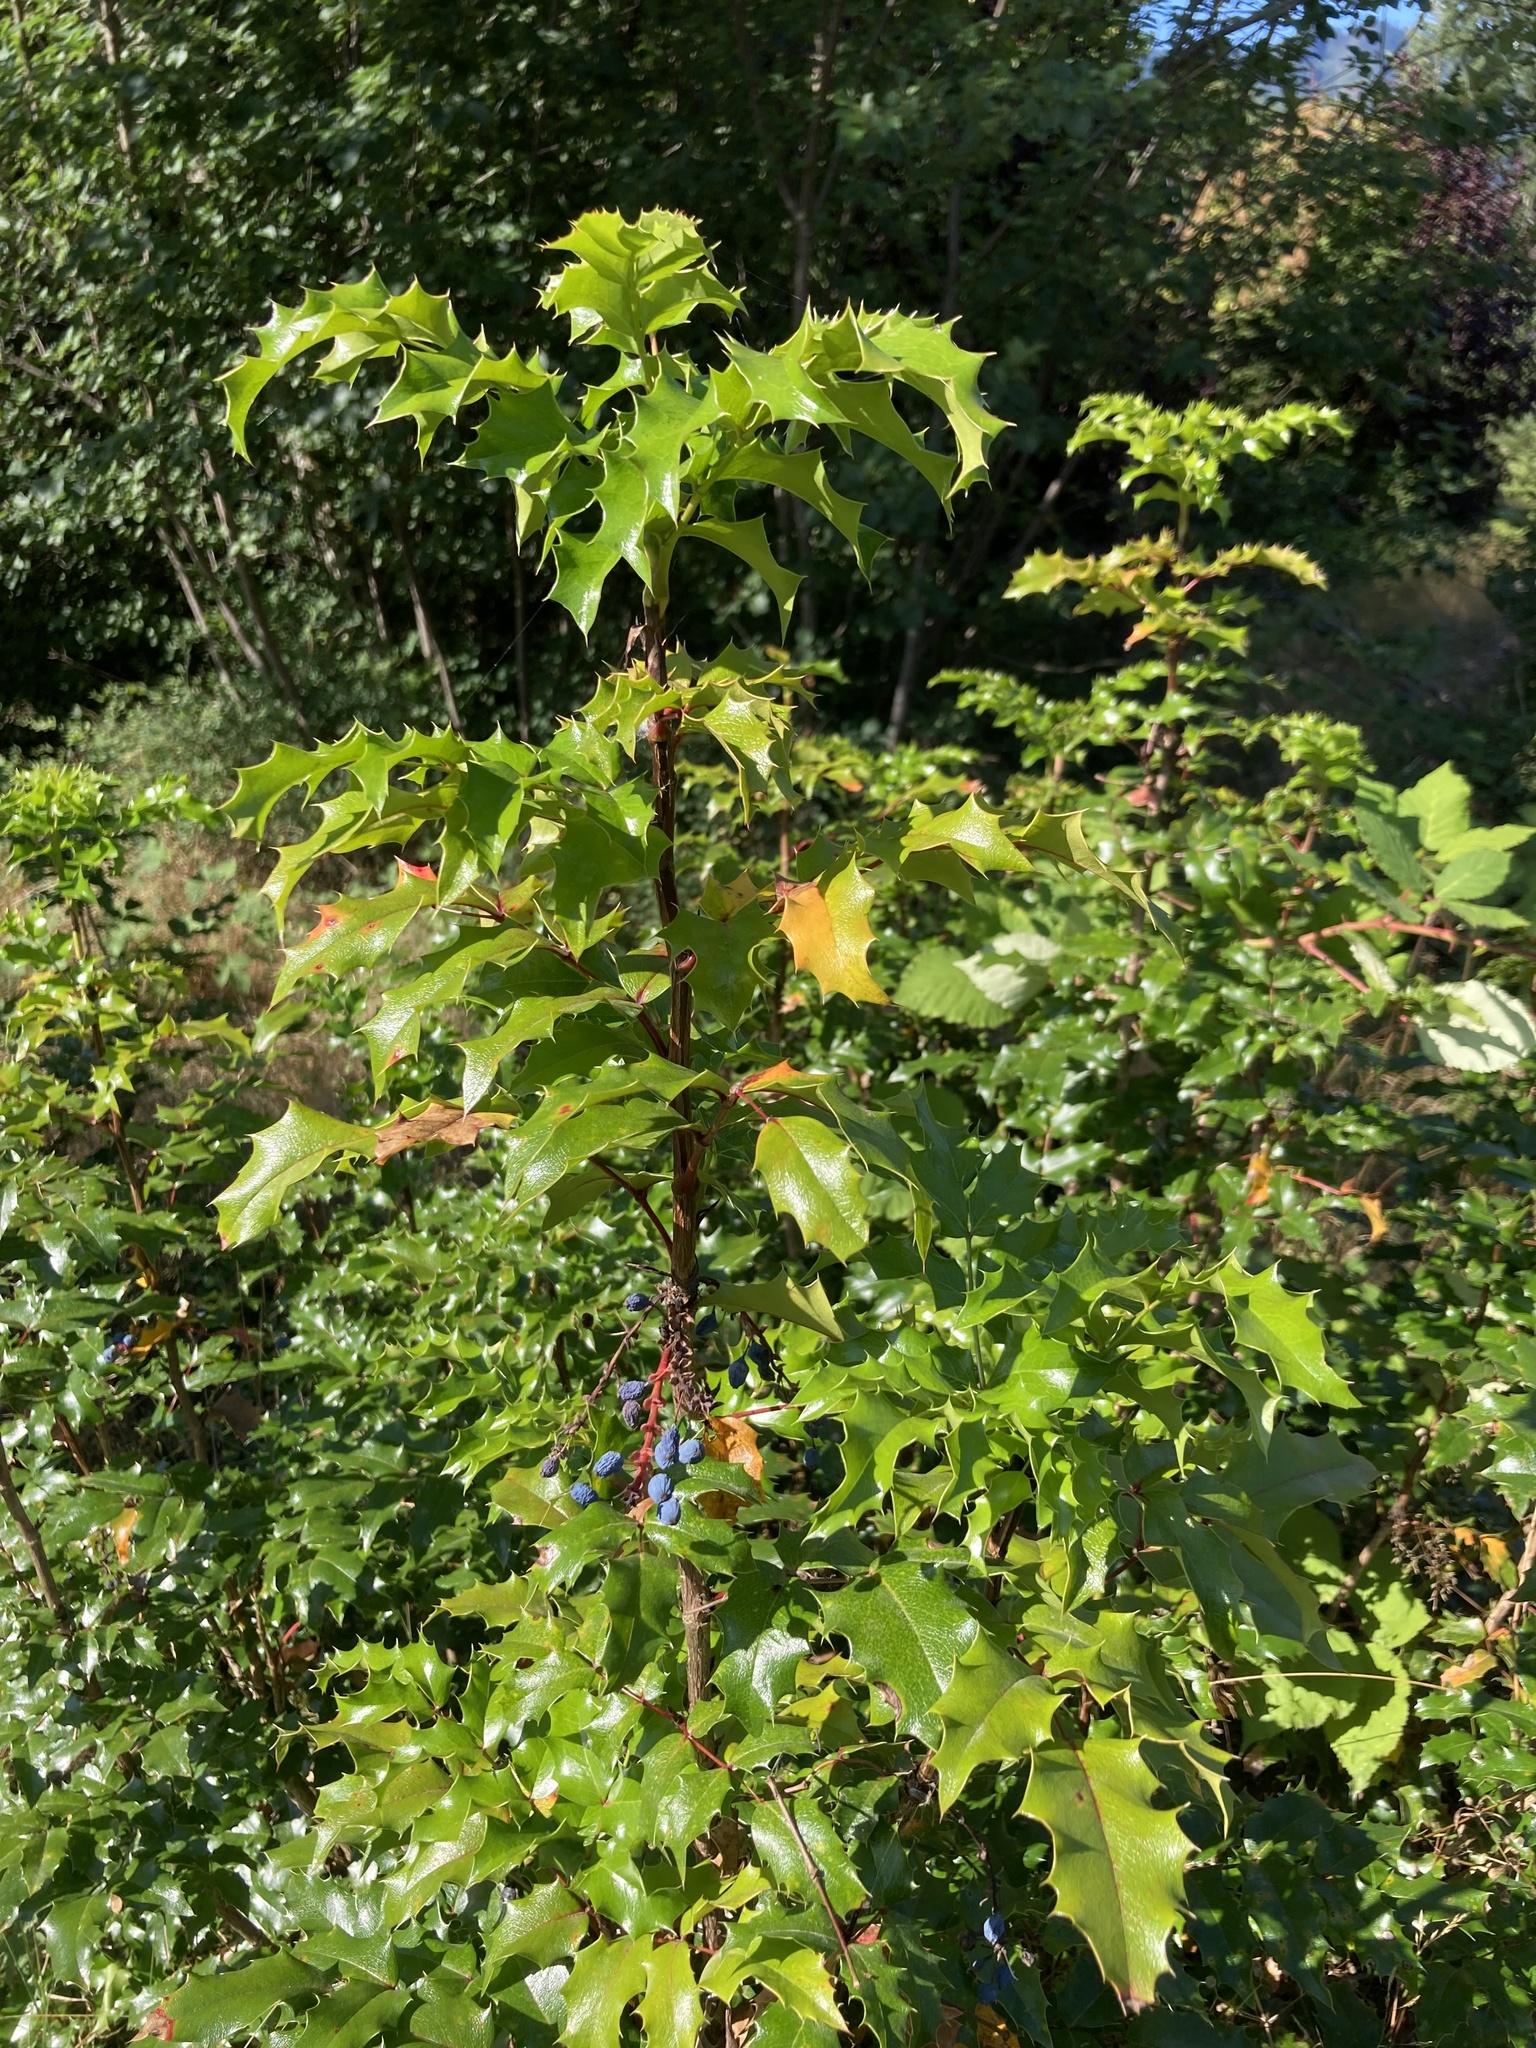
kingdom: Plantae
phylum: Tracheophyta
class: Magnoliopsida
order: Ranunculales
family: Berberidaceae
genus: Mahonia
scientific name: Mahonia aquifolium
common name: Oregon-grape
